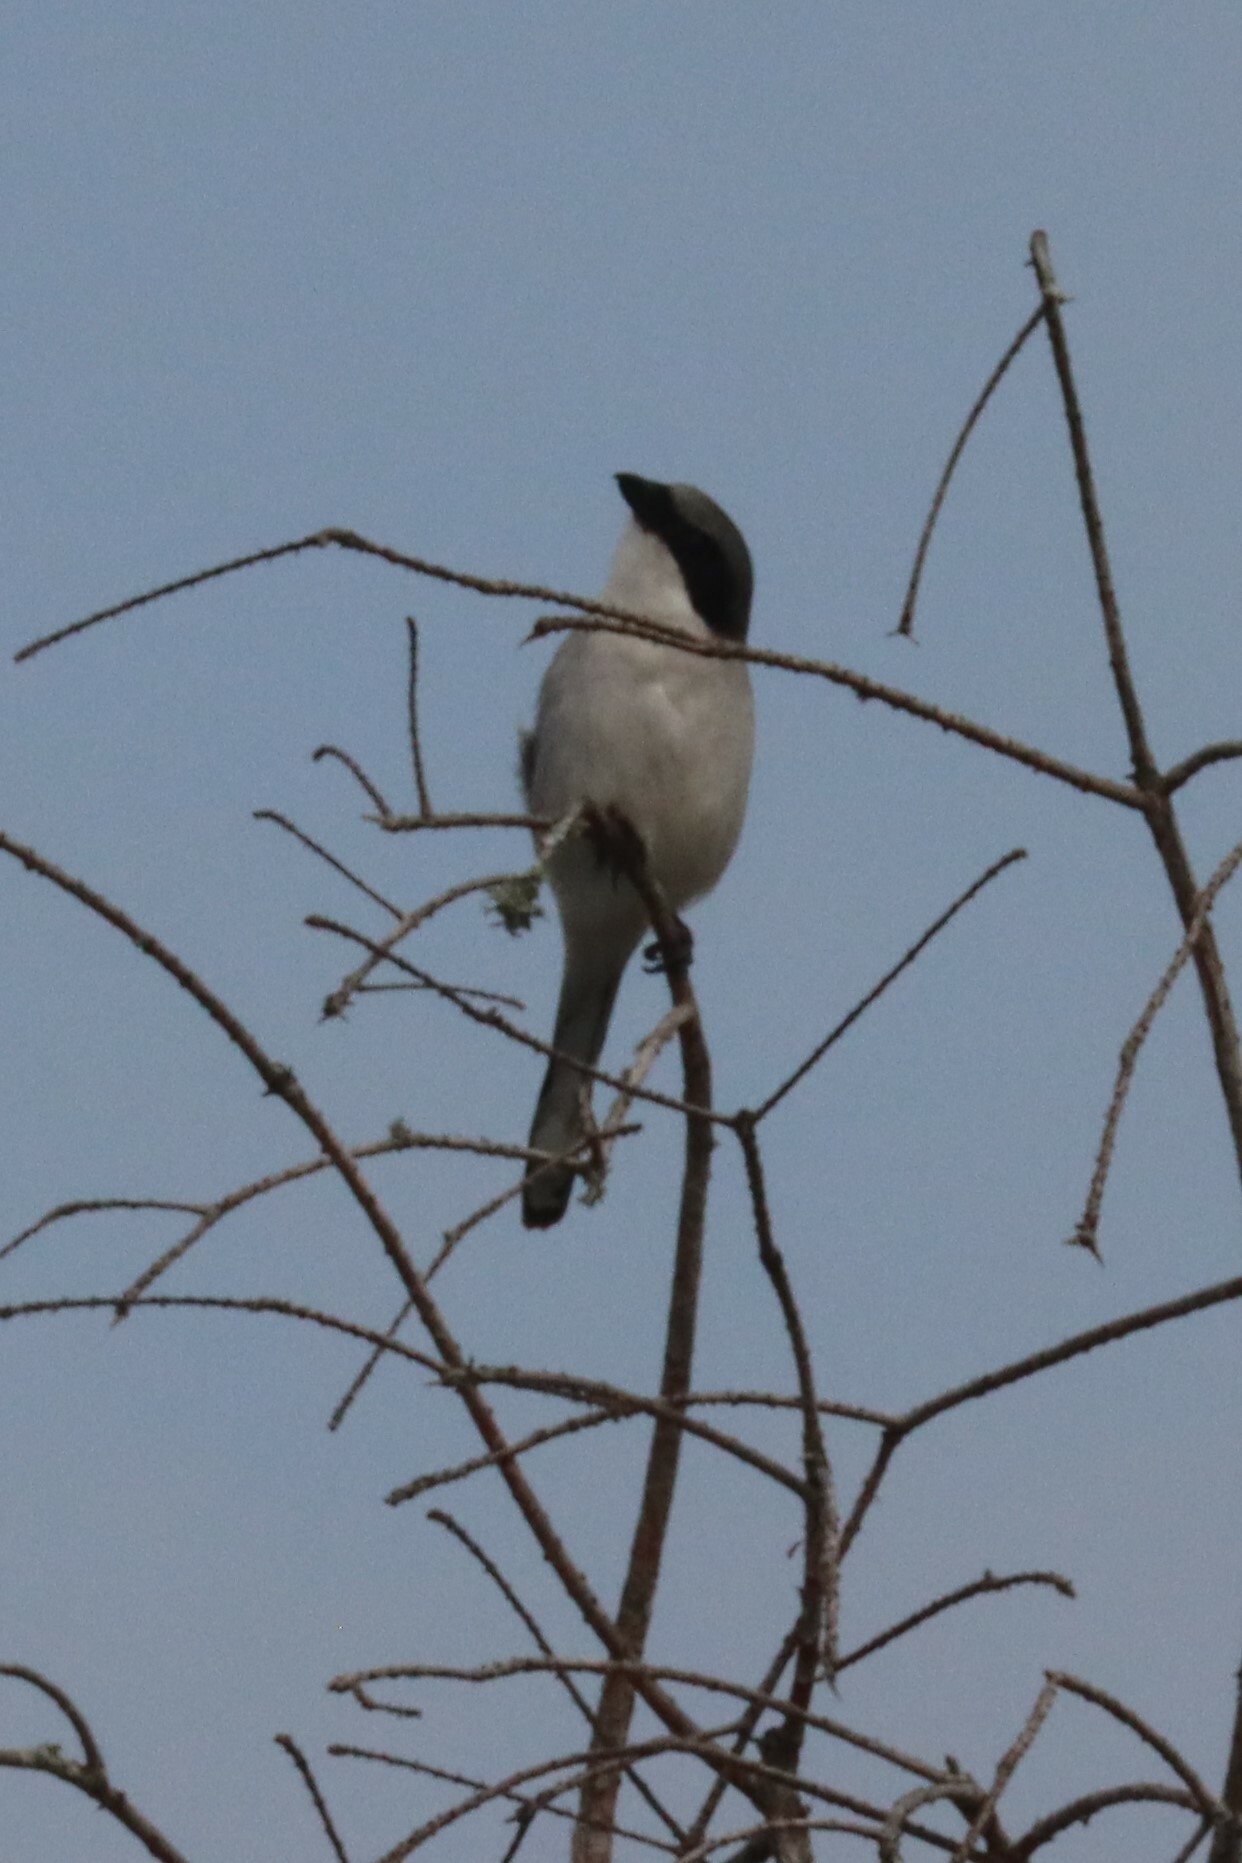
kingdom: Animalia
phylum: Chordata
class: Aves
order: Passeriformes
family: Laniidae
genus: Lanius
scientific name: Lanius ludovicianus
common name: Loggerhead shrike
